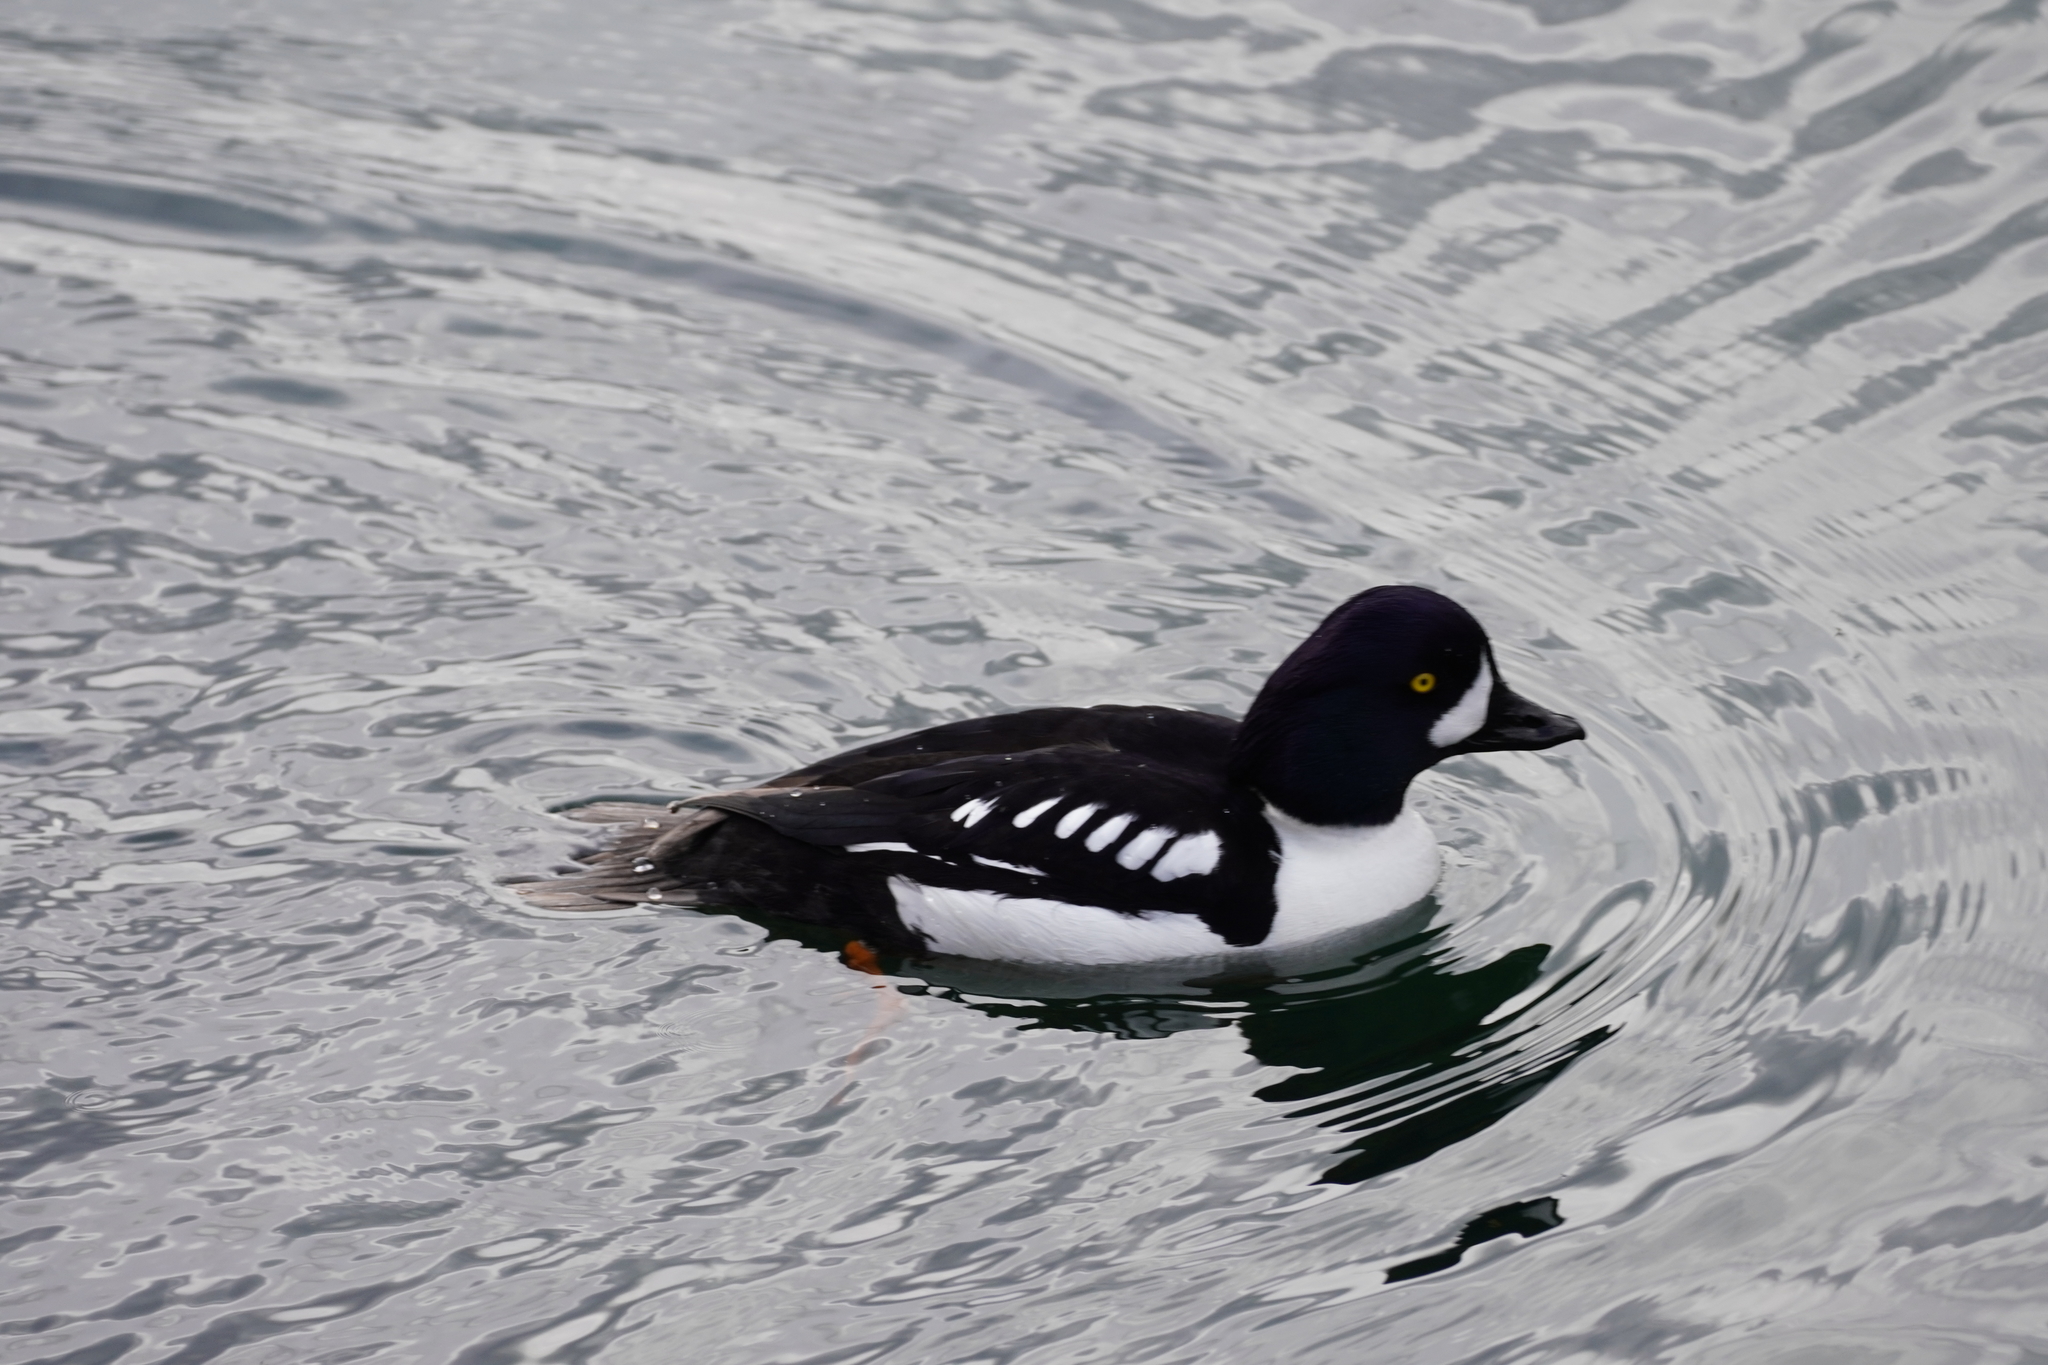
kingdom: Animalia
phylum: Chordata
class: Aves
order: Anseriformes
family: Anatidae
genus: Bucephala
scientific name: Bucephala islandica
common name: Barrow's goldeneye
